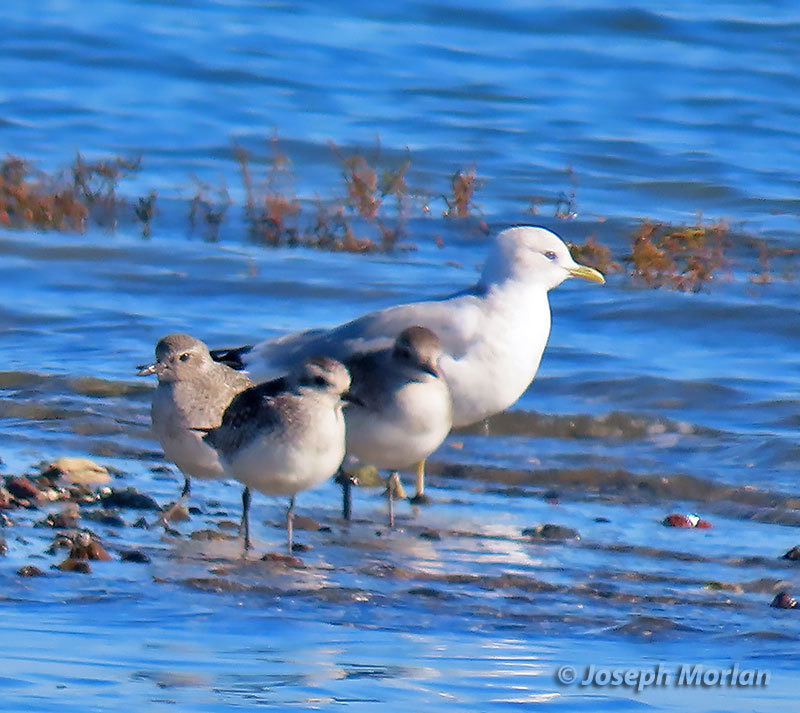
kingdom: Animalia
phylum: Chordata
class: Aves
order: Charadriiformes
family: Laridae
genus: Larus
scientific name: Larus brachyrhynchus
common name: Short-billed gull
